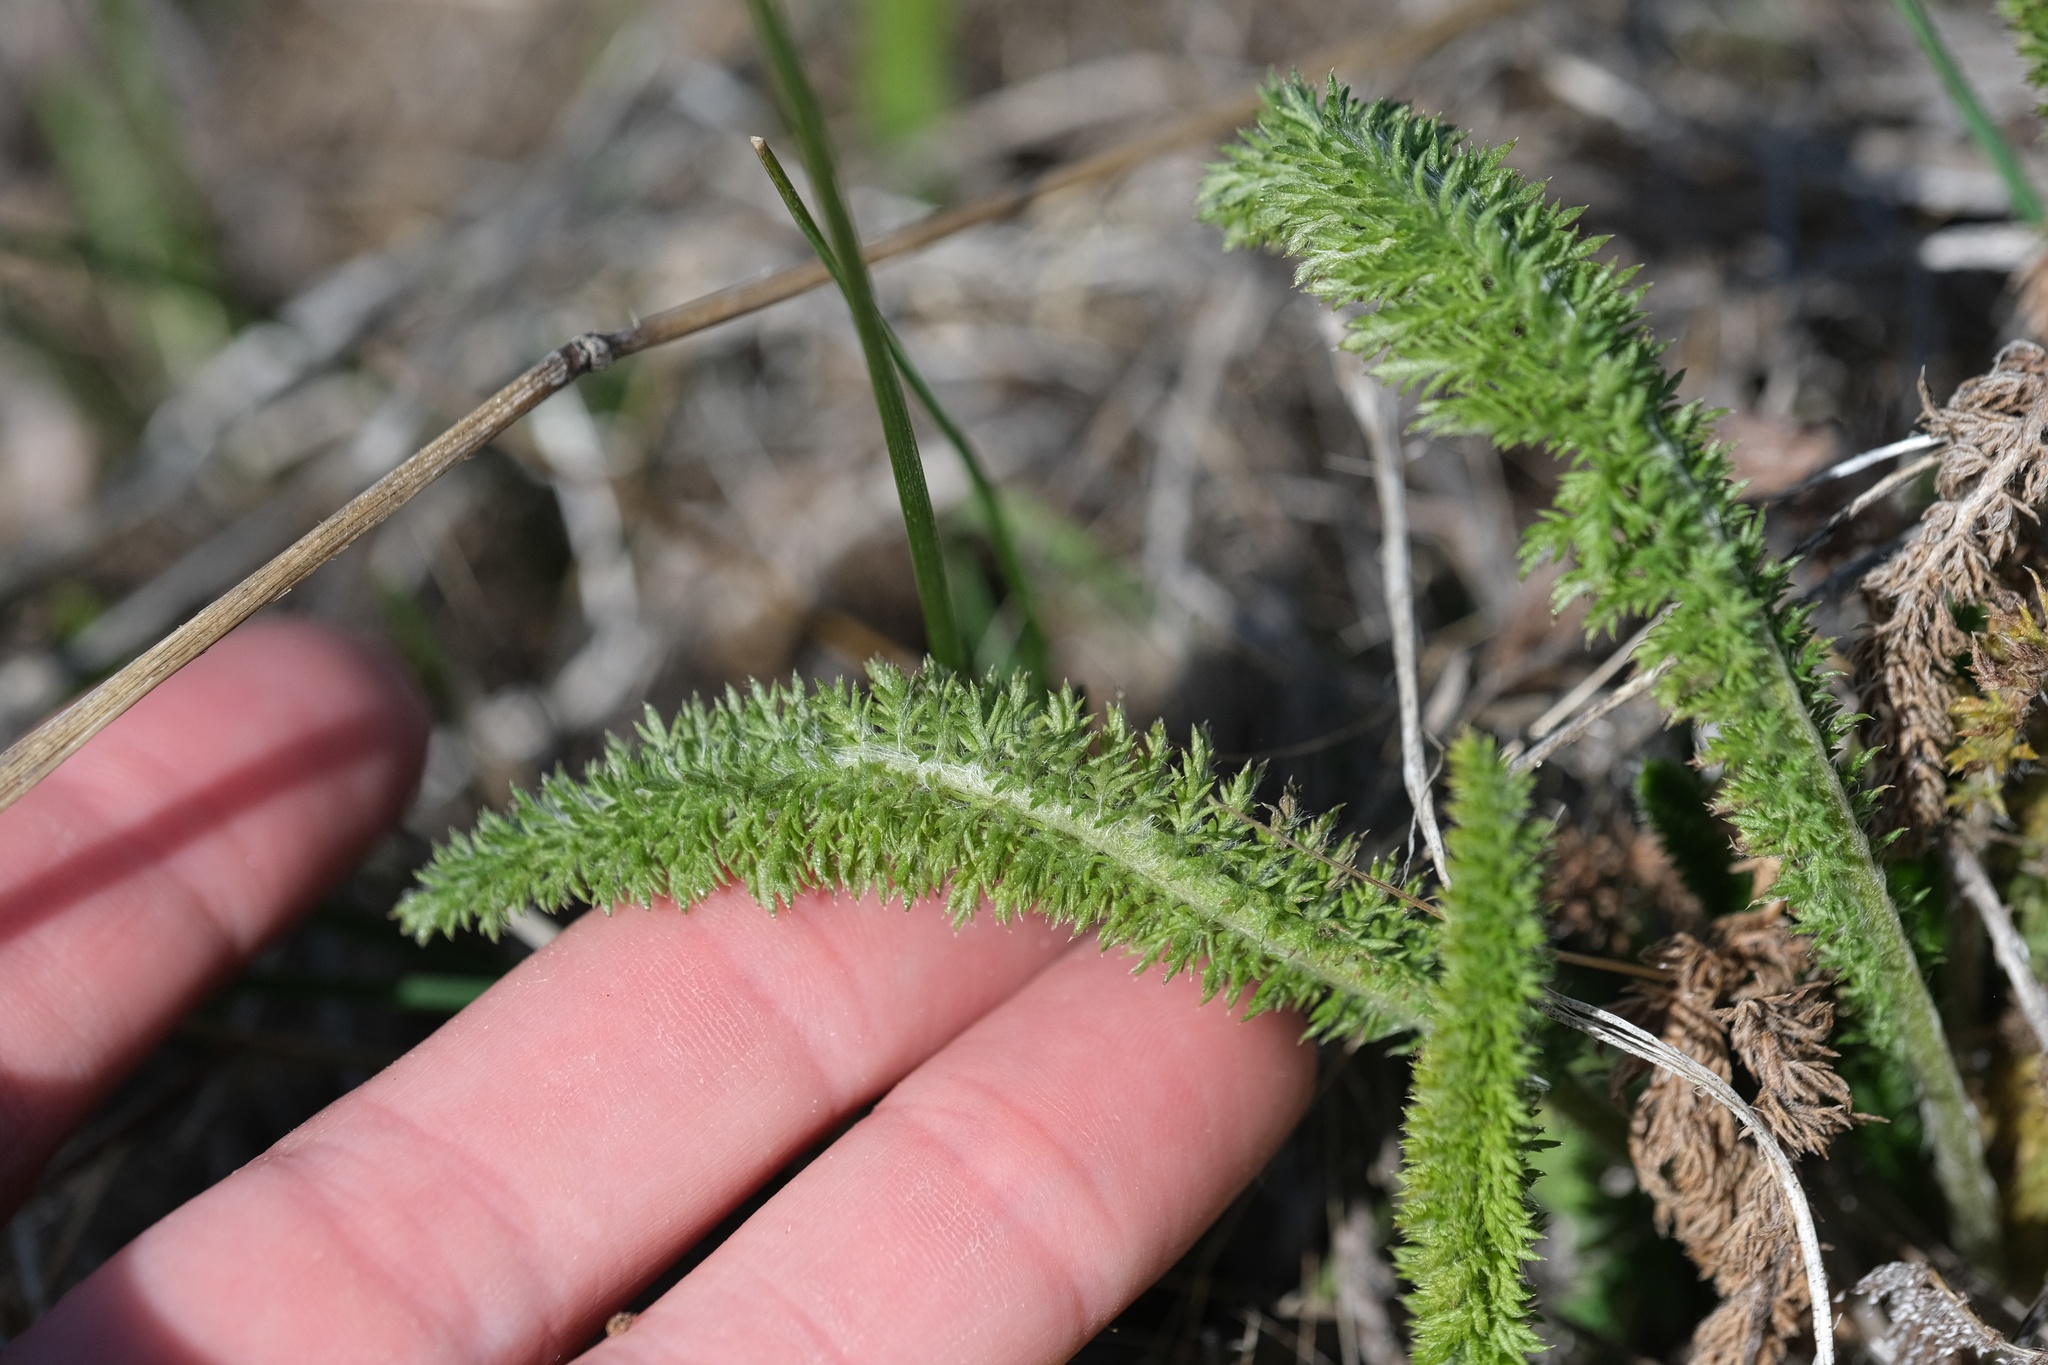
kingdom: Plantae
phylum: Tracheophyta
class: Magnoliopsida
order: Asterales
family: Asteraceae
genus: Achillea
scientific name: Achillea millefolium
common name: Yarrow
